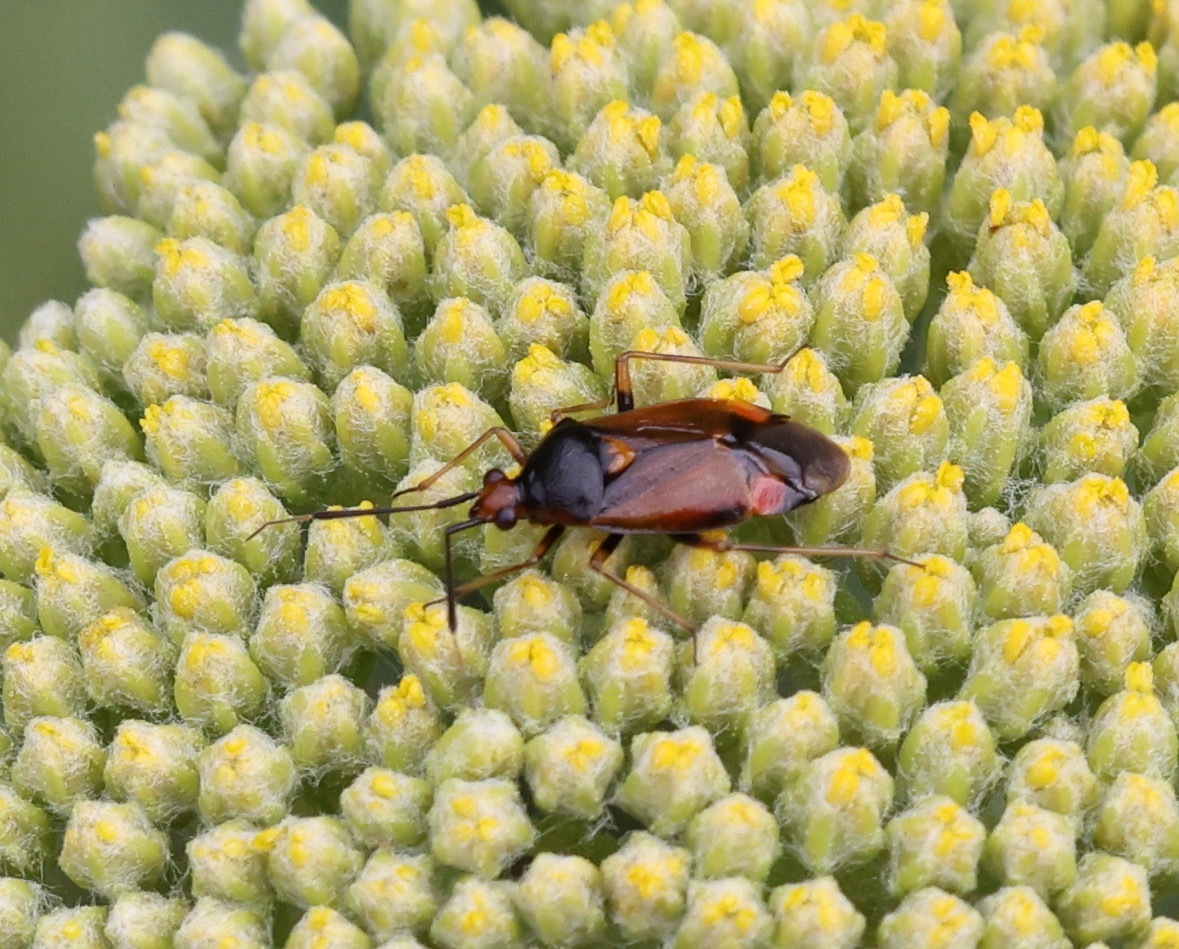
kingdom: Animalia
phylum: Arthropoda
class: Insecta
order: Hemiptera
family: Miridae
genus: Deraeocoris
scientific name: Deraeocoris ruber
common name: Plant bug
